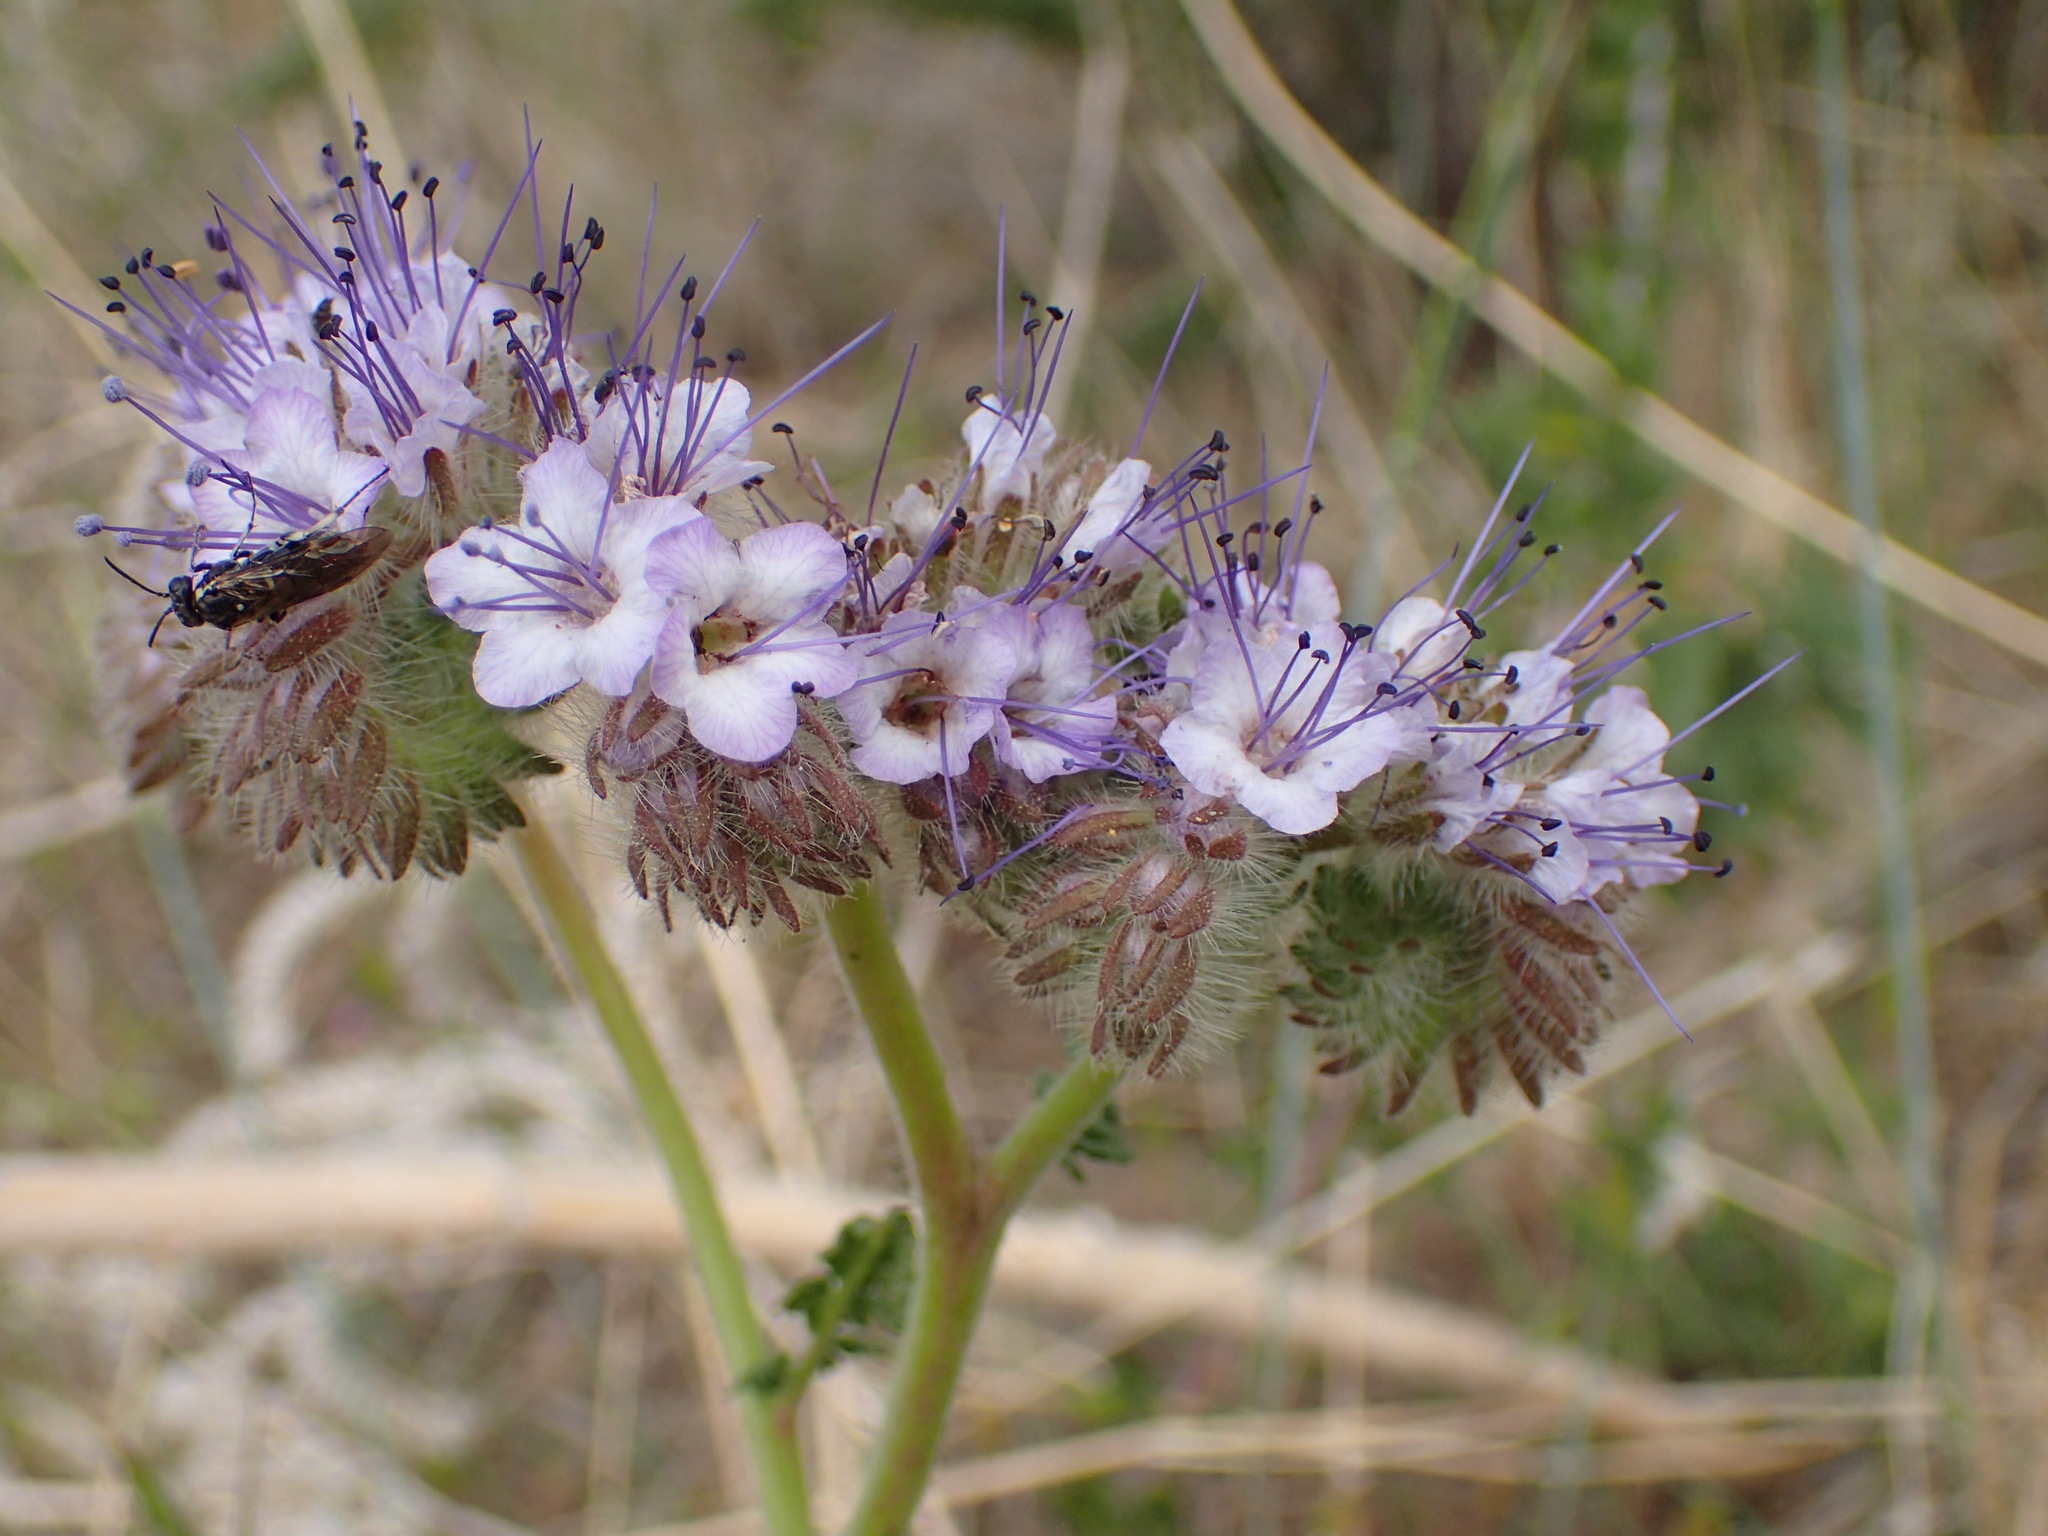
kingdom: Plantae
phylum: Tracheophyta
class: Magnoliopsida
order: Boraginales
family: Hydrophyllaceae
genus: Phacelia
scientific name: Phacelia tanacetifolia
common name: Phacelia
